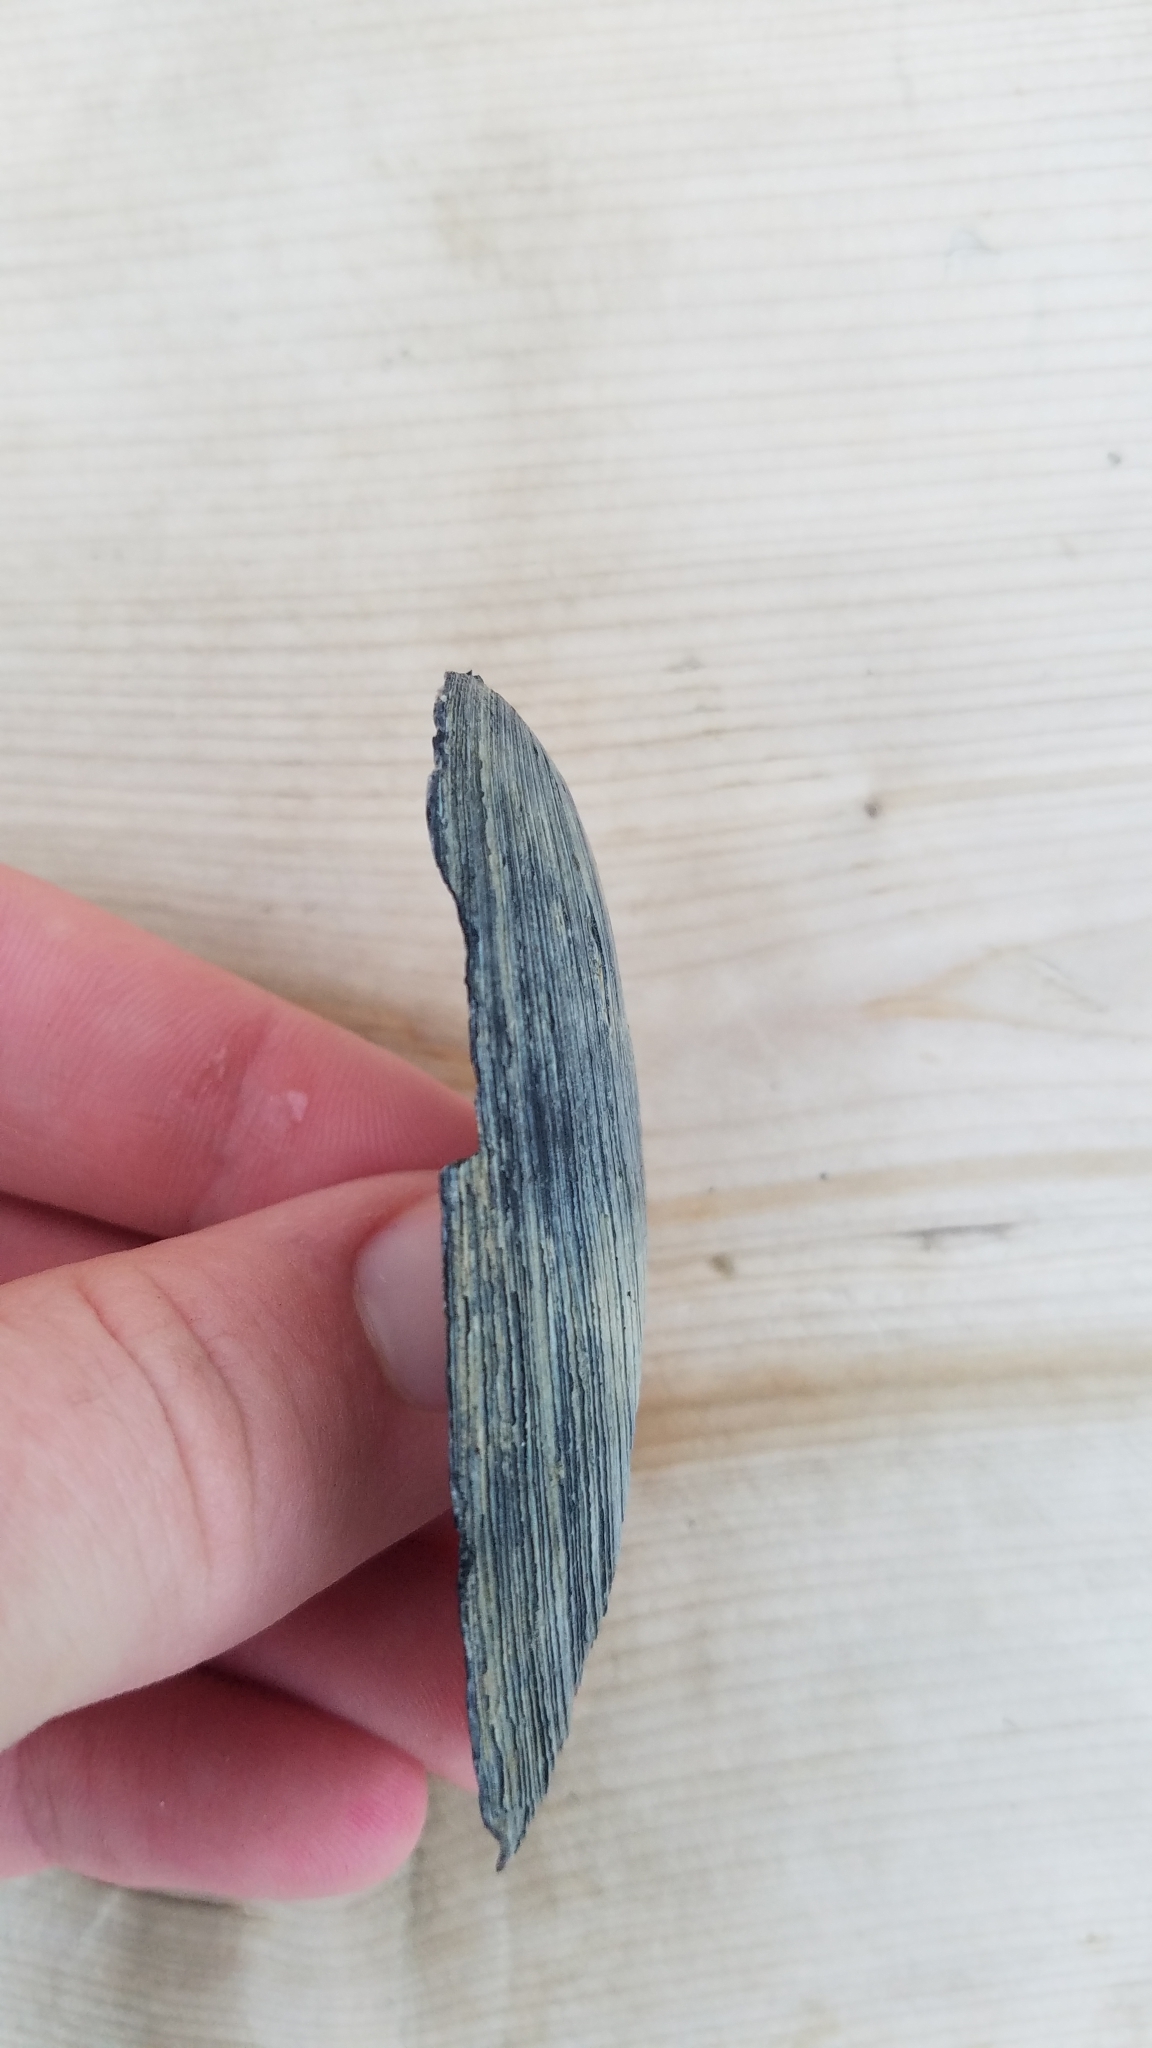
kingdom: Animalia
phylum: Mollusca
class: Bivalvia
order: Unionida
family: Unionidae
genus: Eurynia
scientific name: Eurynia dilatata
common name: Spike
